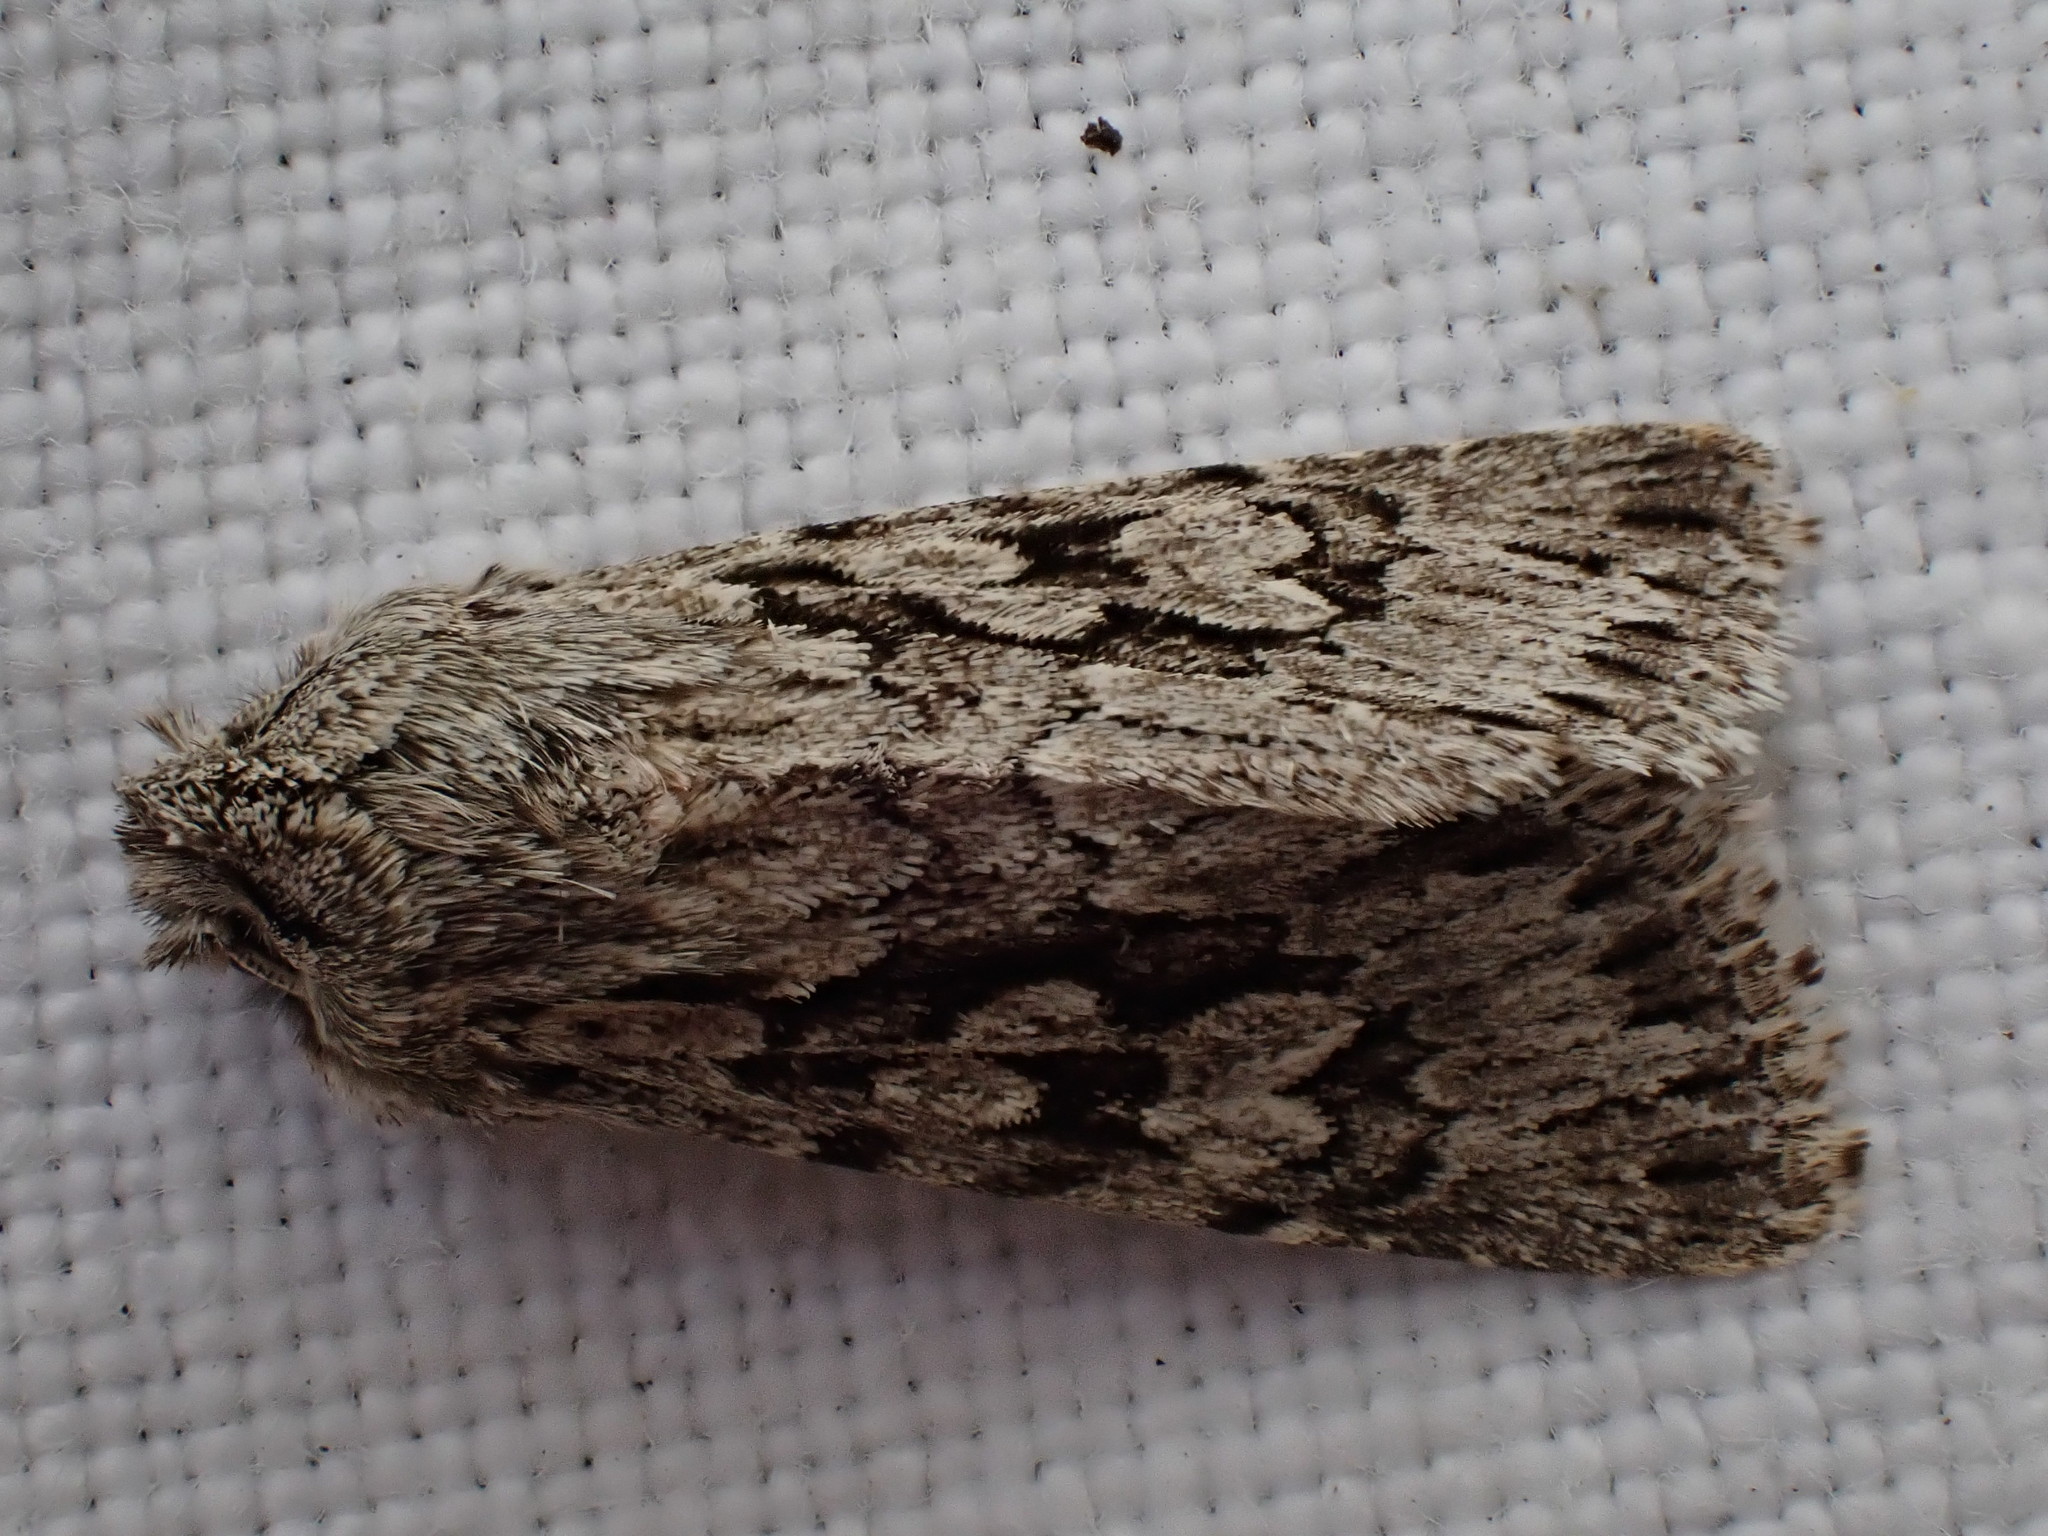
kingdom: Animalia
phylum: Arthropoda
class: Insecta
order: Lepidoptera
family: Noctuidae
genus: Xylocampa
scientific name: Xylocampa areola
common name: Early grey
